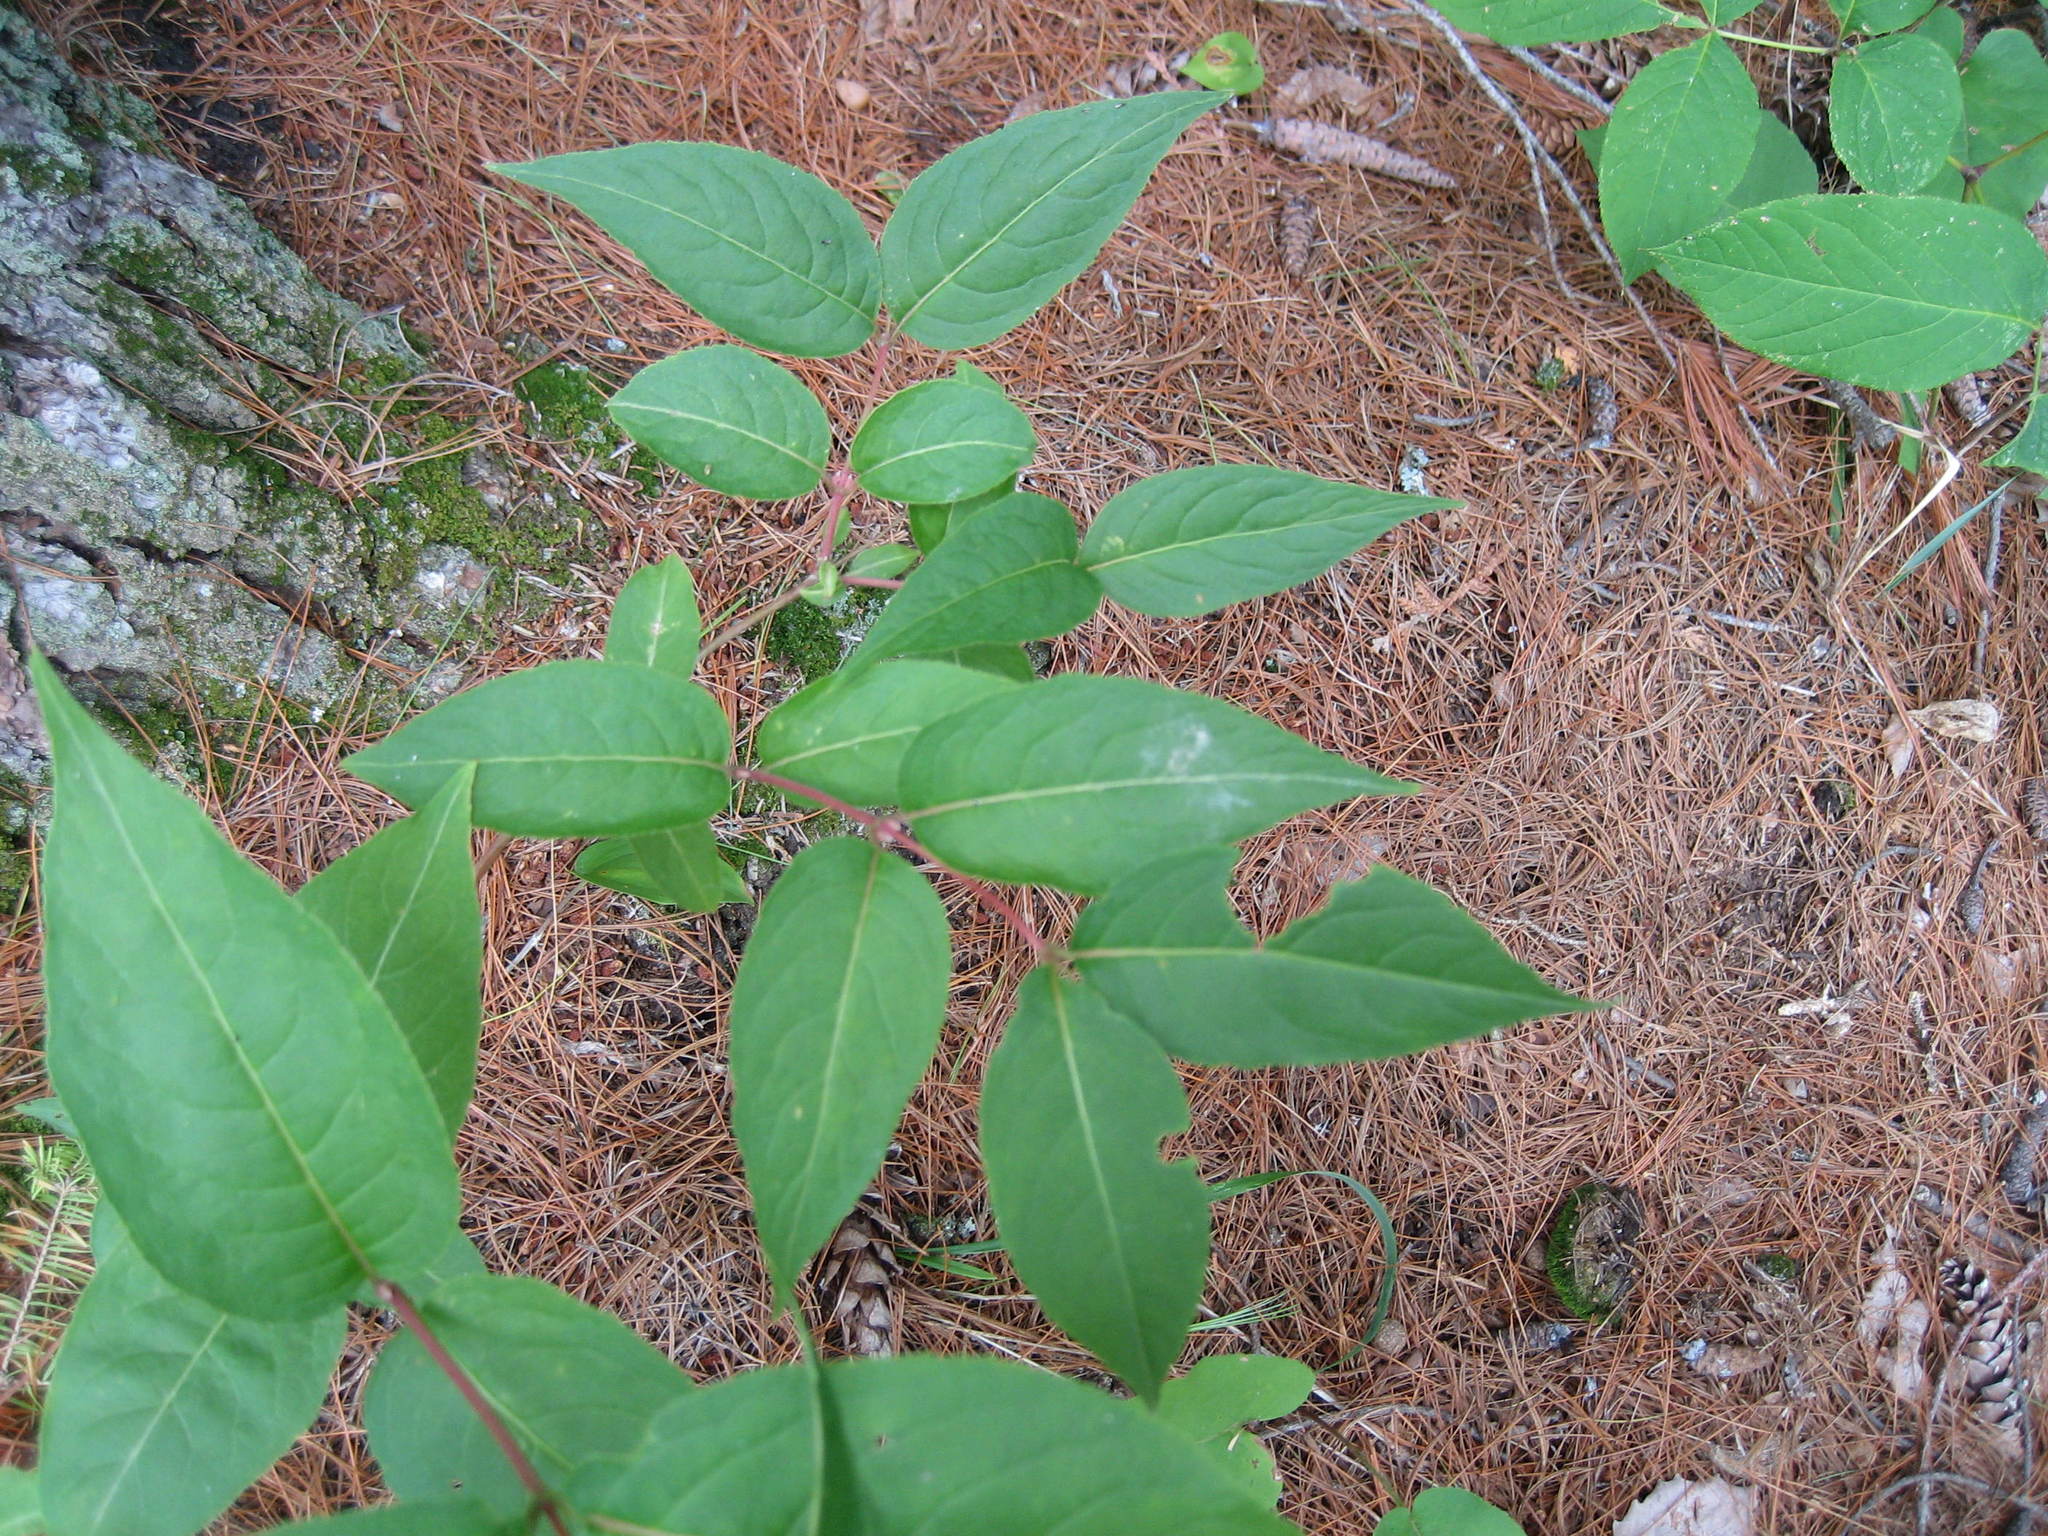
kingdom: Plantae
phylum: Tracheophyta
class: Magnoliopsida
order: Dipsacales
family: Caprifoliaceae
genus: Diervilla
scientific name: Diervilla lonicera
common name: Bush-honeysuckle
